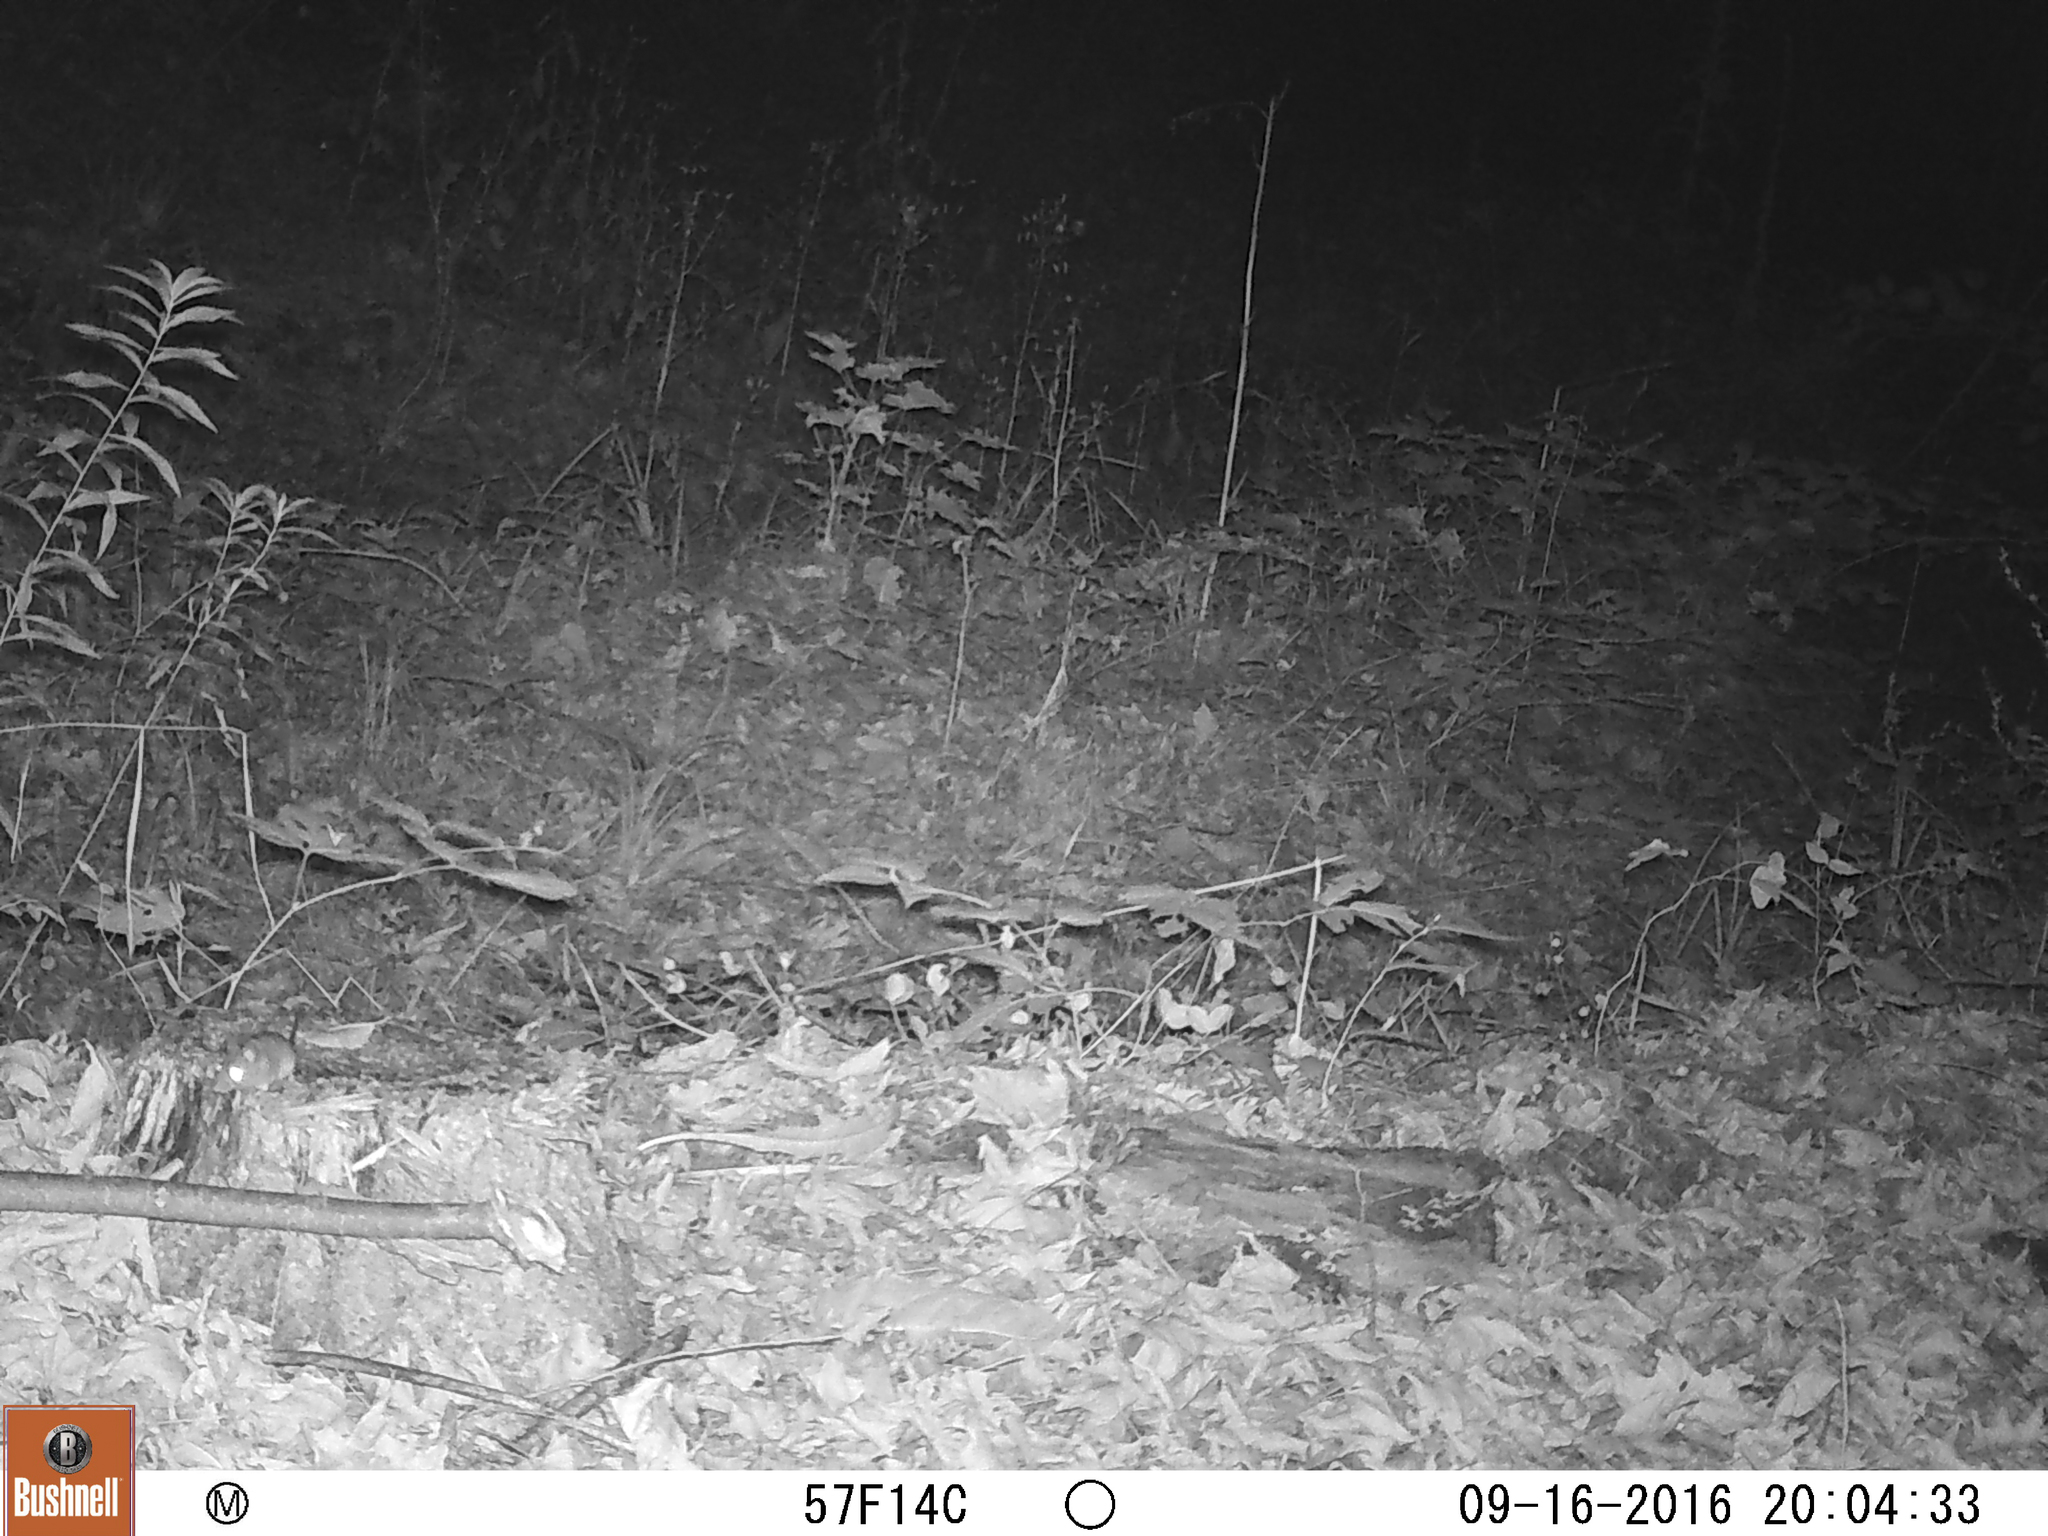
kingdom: Animalia
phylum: Chordata
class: Mammalia
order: Rodentia
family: Cricetidae
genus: Peromyscus
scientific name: Peromyscus
